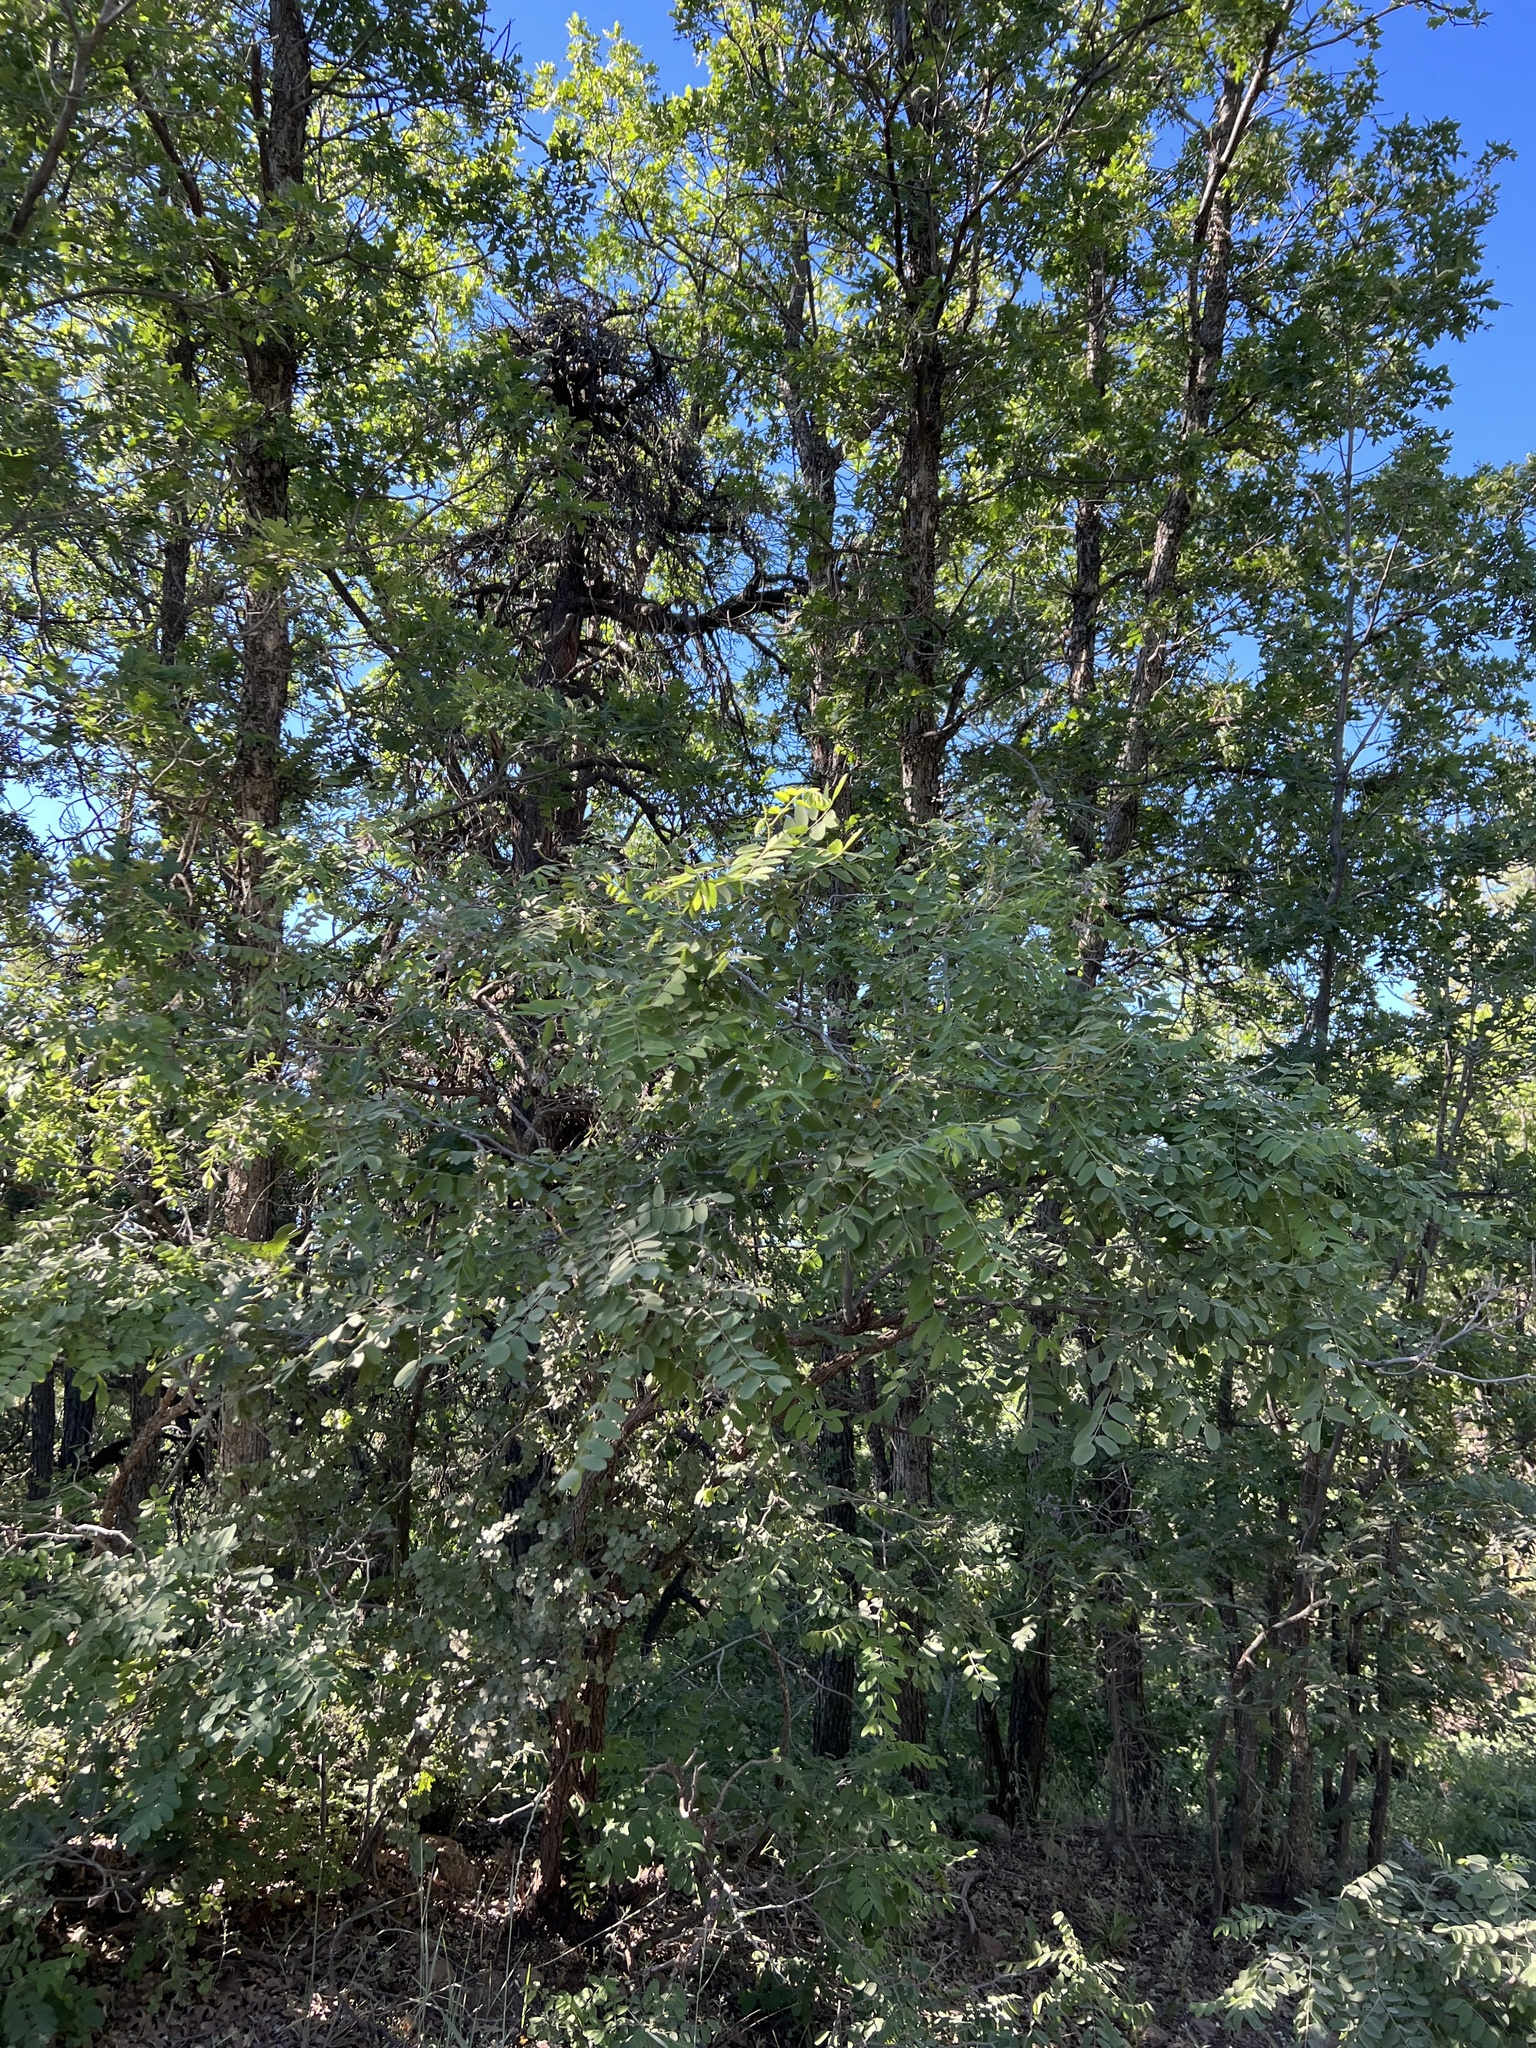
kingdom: Plantae
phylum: Tracheophyta
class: Magnoliopsida
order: Fabales
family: Fabaceae
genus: Robinia
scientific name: Robinia neomexicana
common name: New mexico locust
